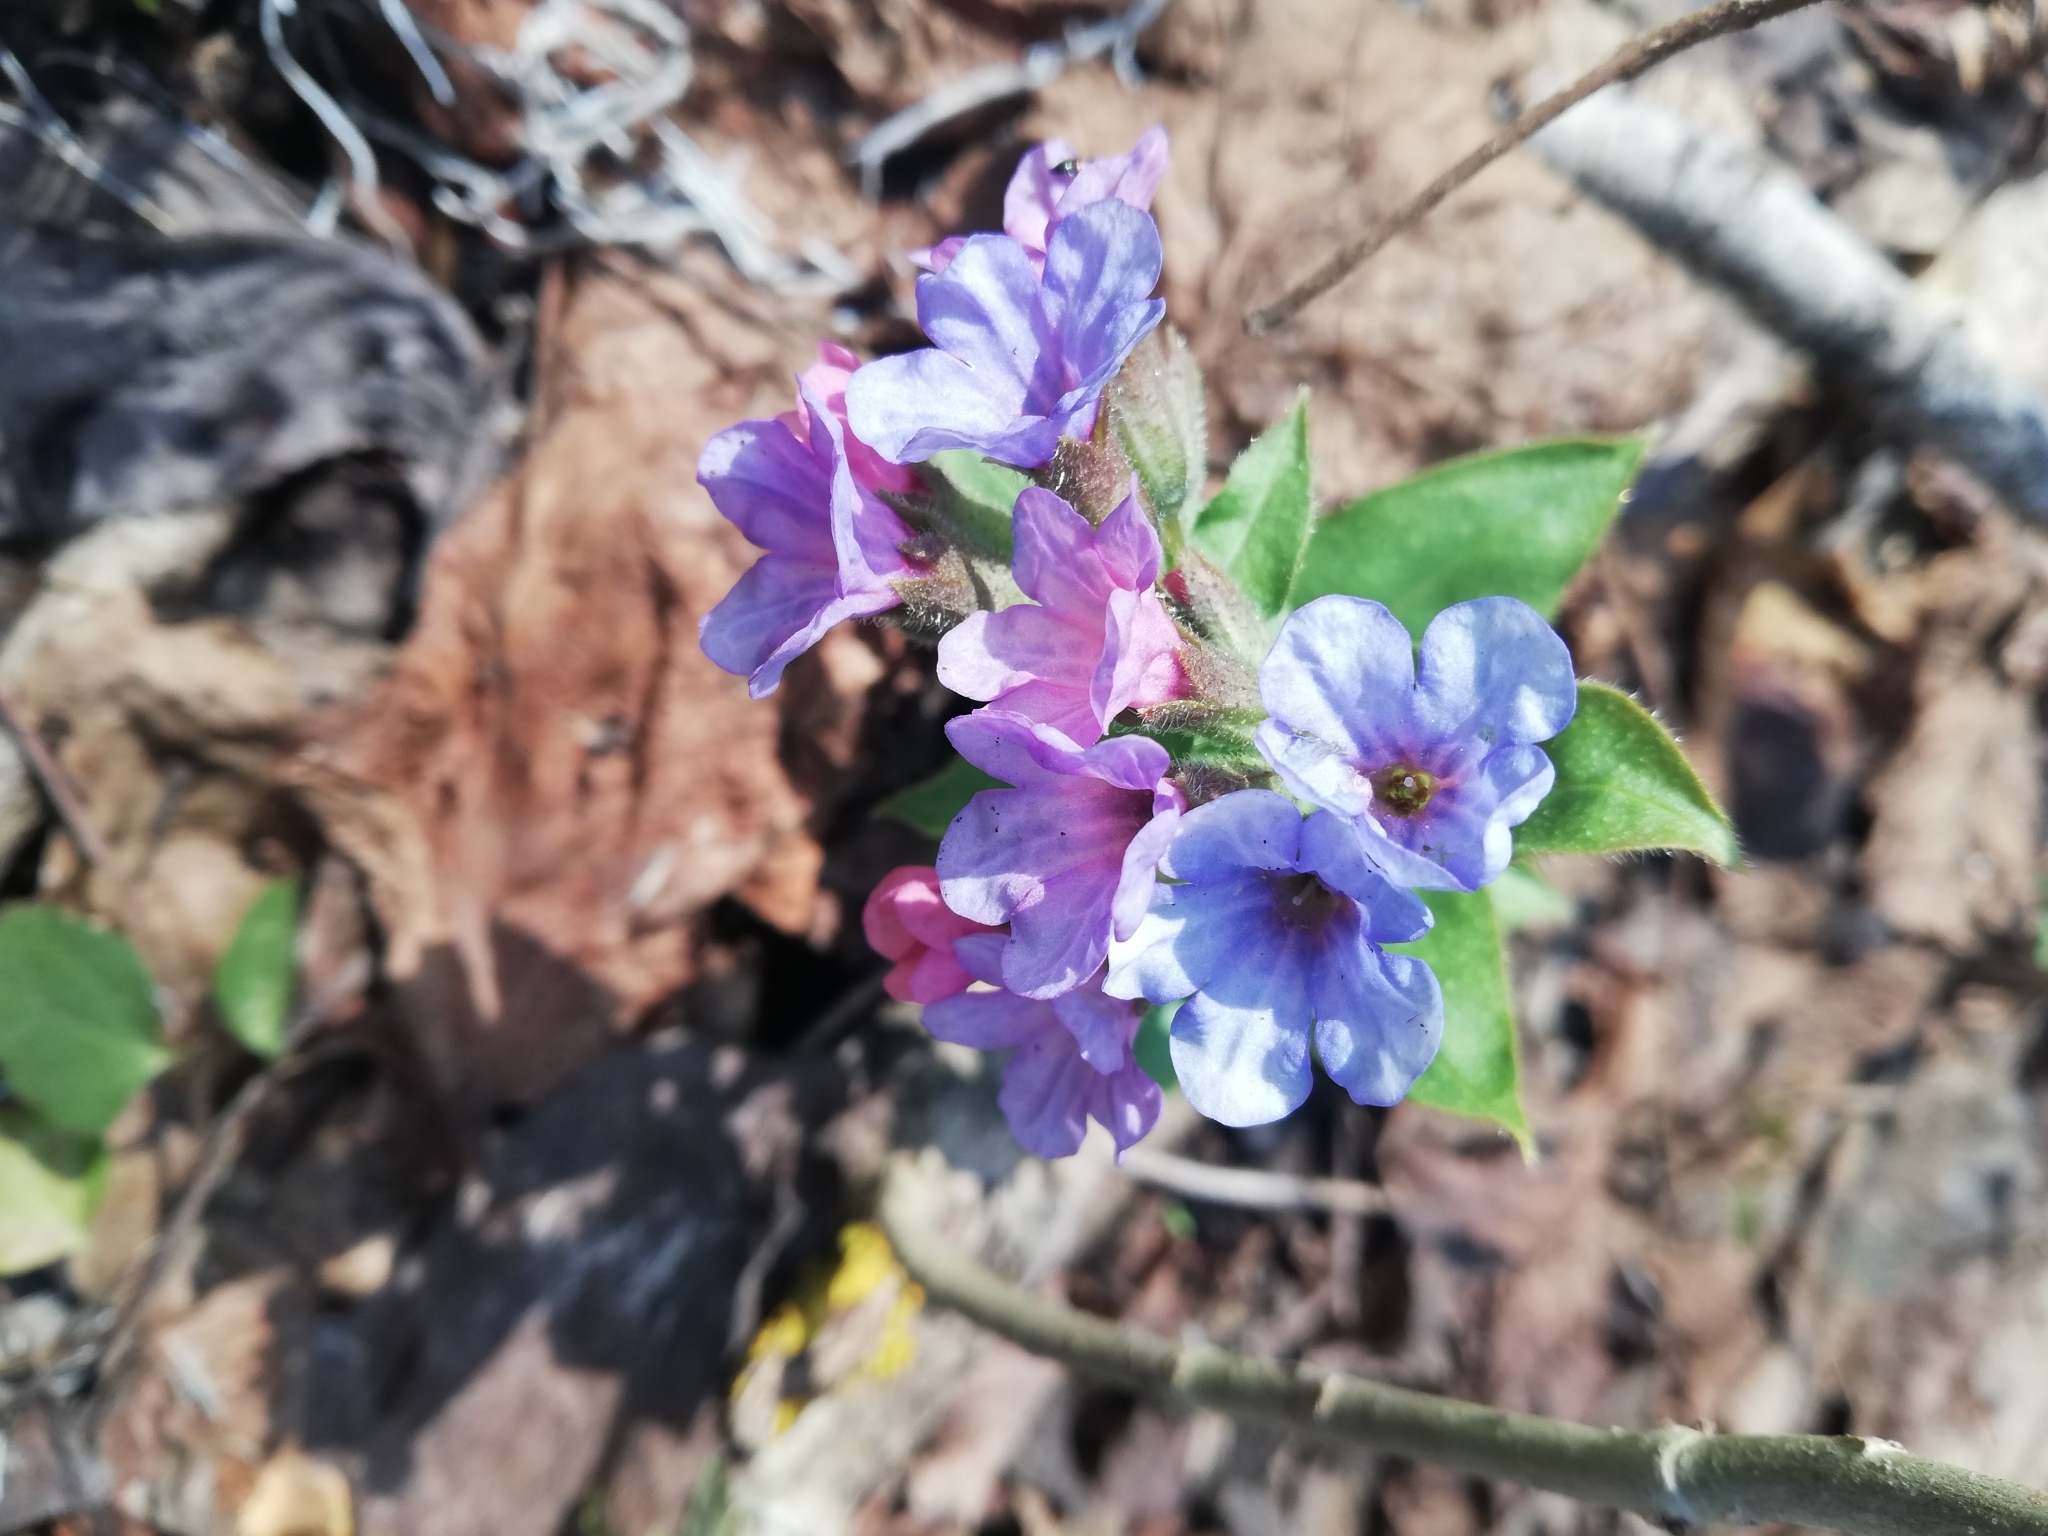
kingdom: Plantae
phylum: Tracheophyta
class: Magnoliopsida
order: Boraginales
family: Boraginaceae
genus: Pulmonaria
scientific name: Pulmonaria obscura
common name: Suffolk lungwort
